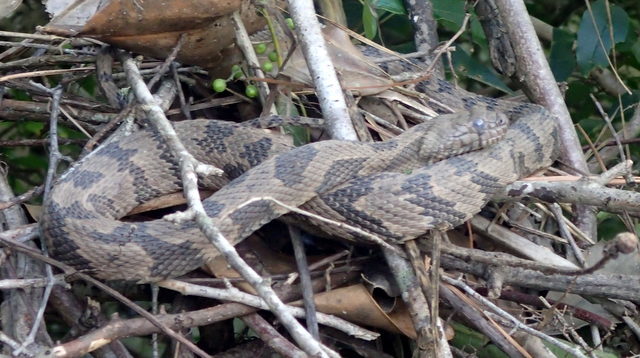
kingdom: Animalia
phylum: Chordata
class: Squamata
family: Colubridae
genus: Nerodia
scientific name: Nerodia taxispilota
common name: Brown water snake
